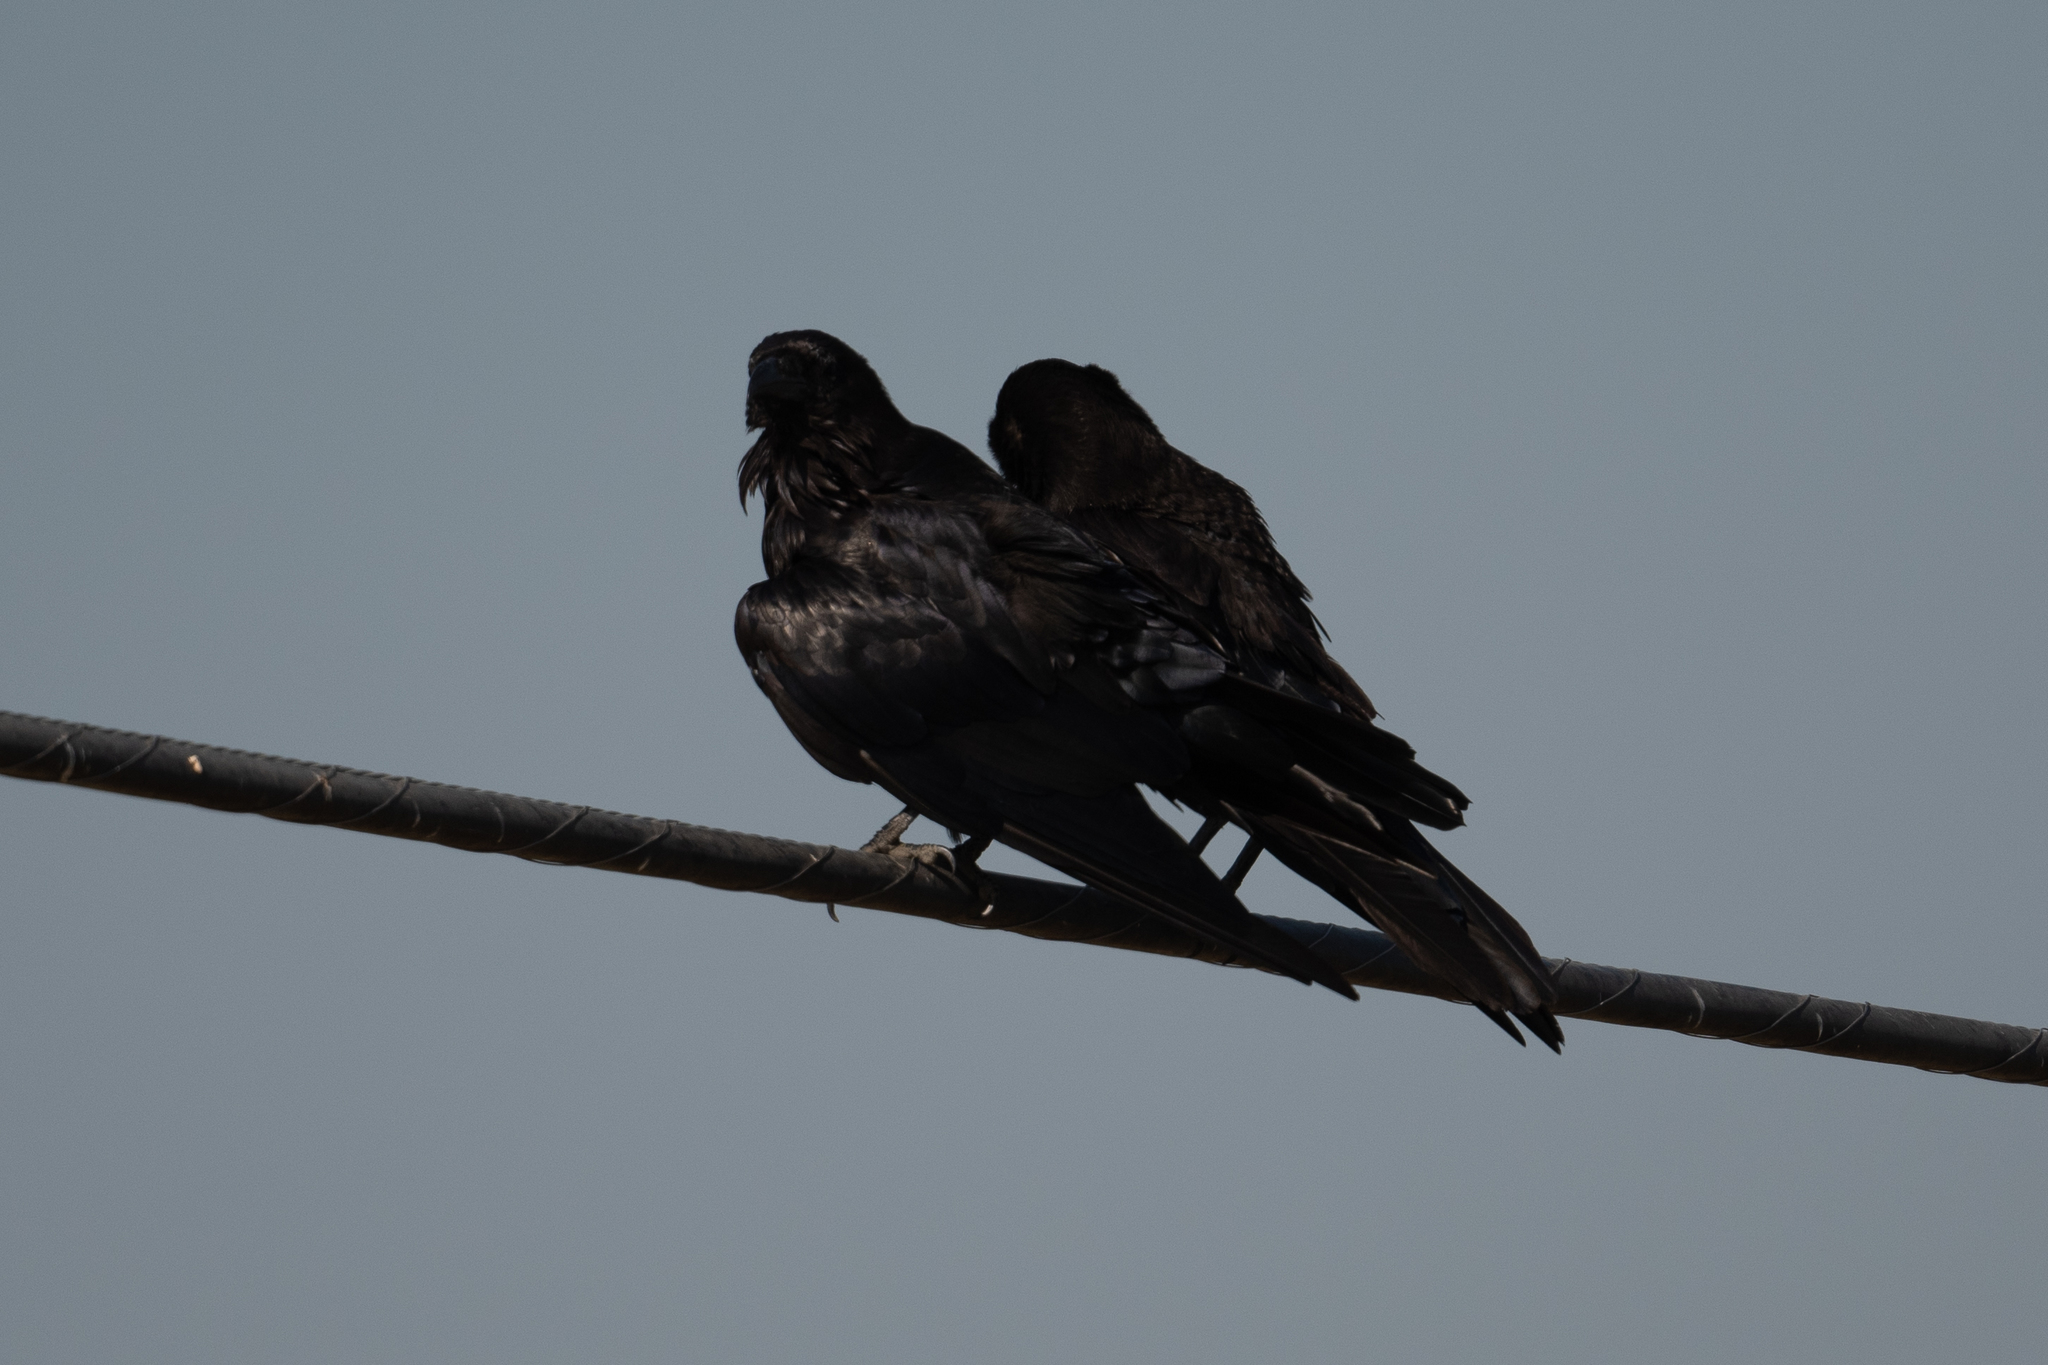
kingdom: Animalia
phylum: Chordata
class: Aves
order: Passeriformes
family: Corvidae
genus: Corvus
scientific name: Corvus corax
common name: Common raven
